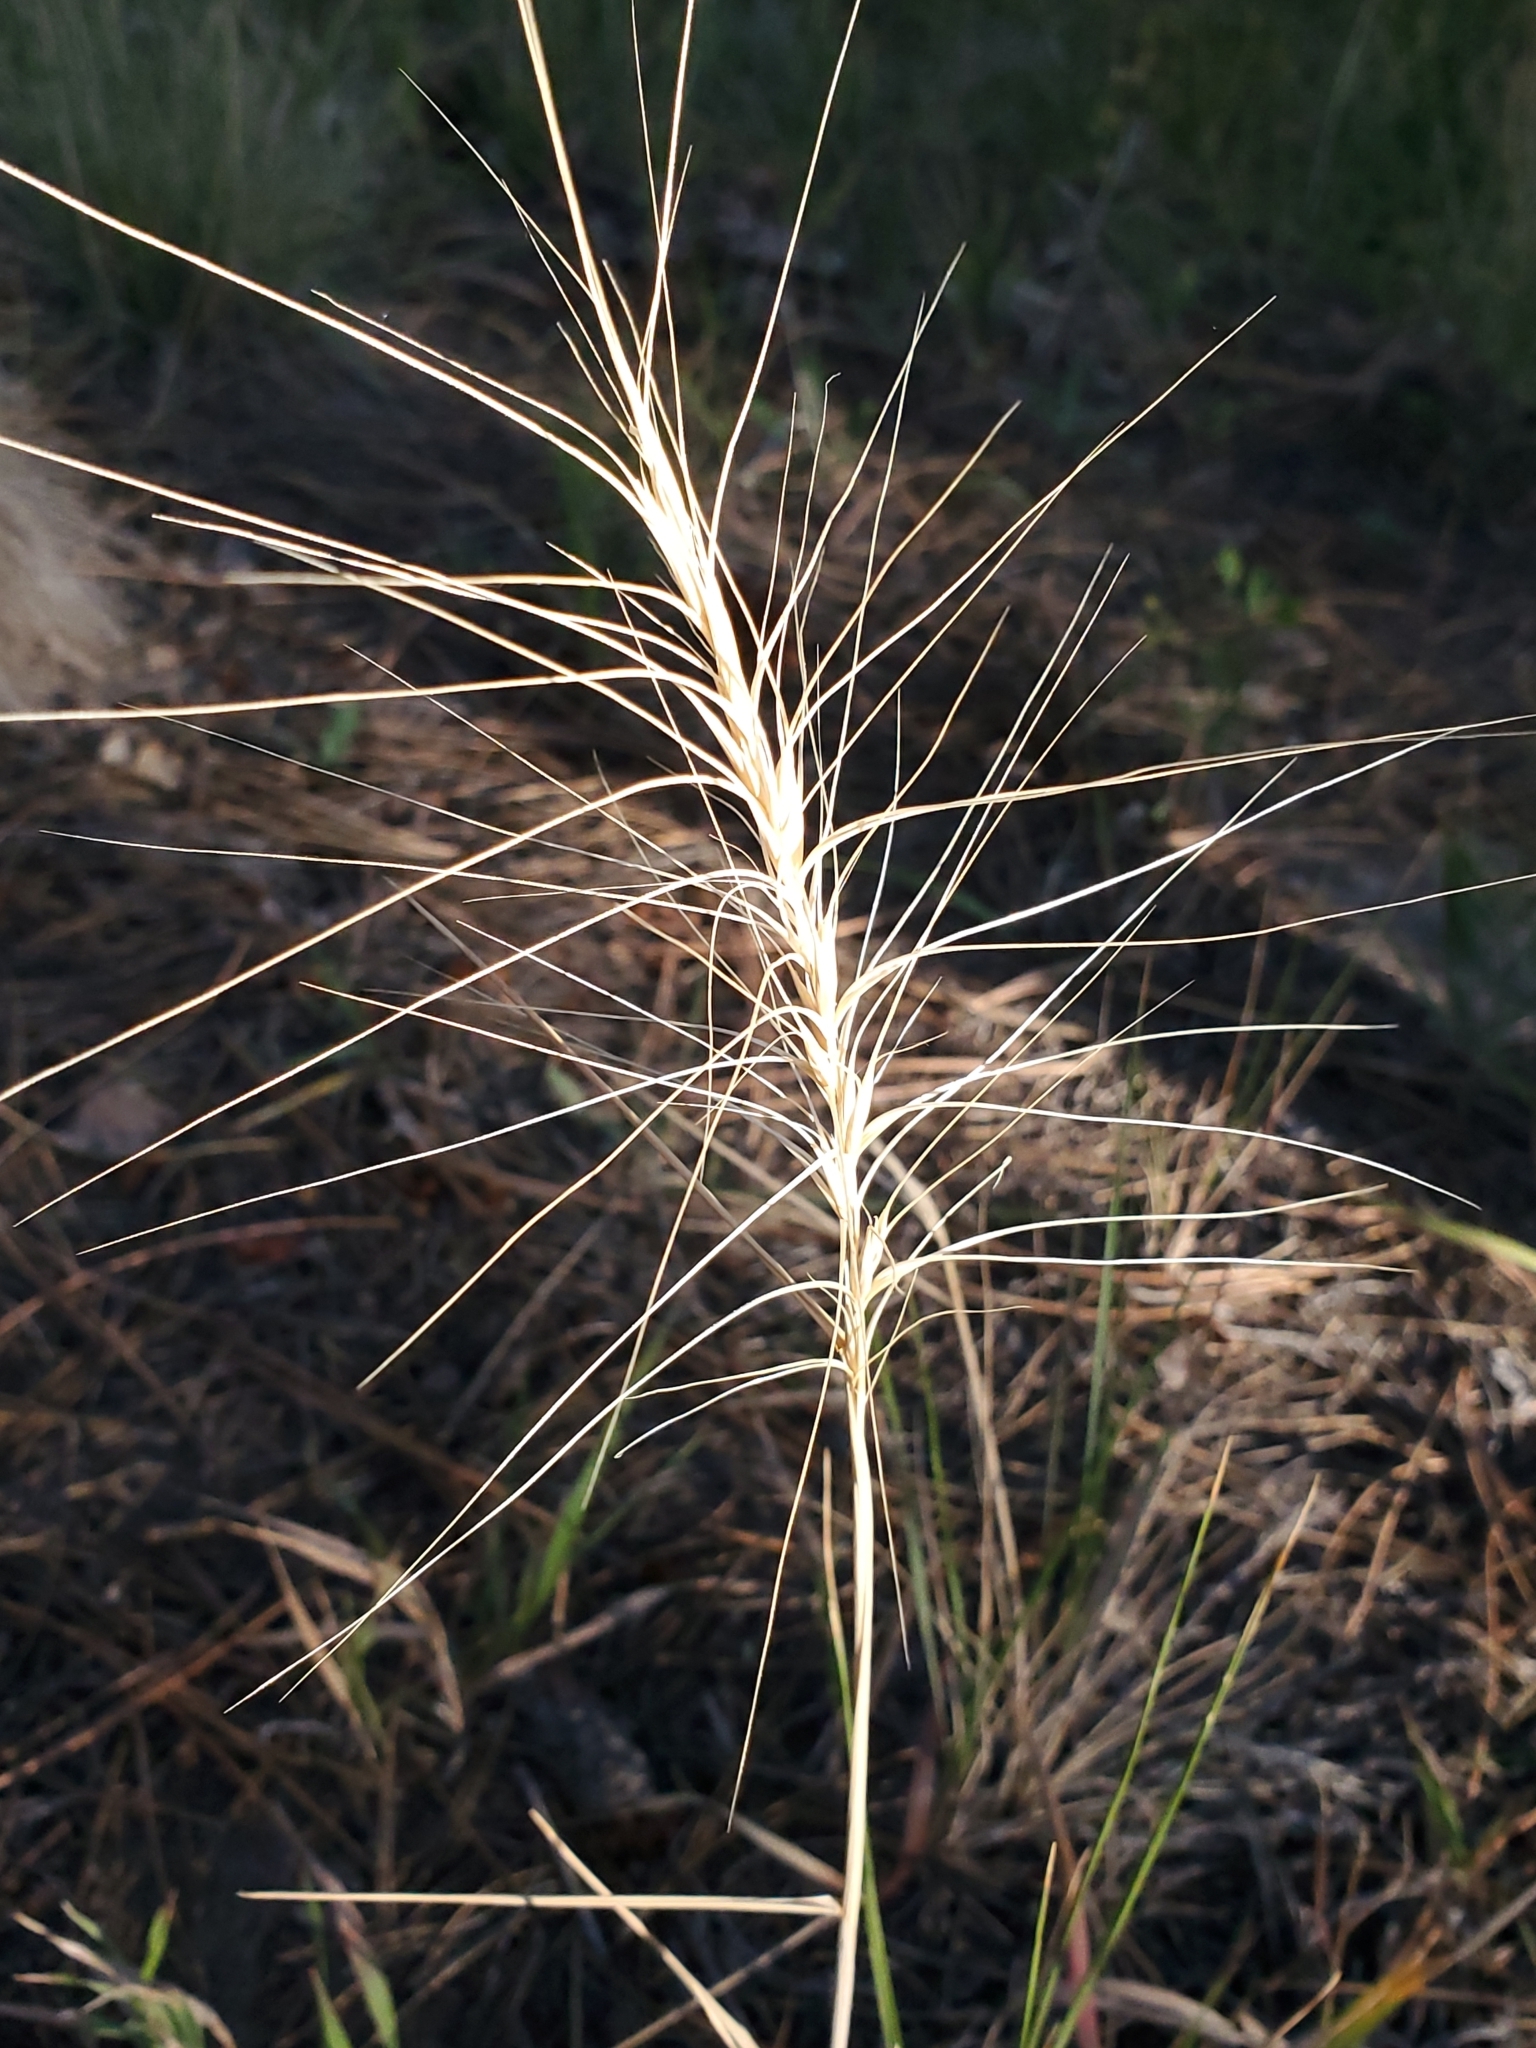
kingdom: Plantae
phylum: Tracheophyta
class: Liliopsida
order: Poales
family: Poaceae
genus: Elymus
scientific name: Elymus elymoides
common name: Bottlebrush squirreltail
